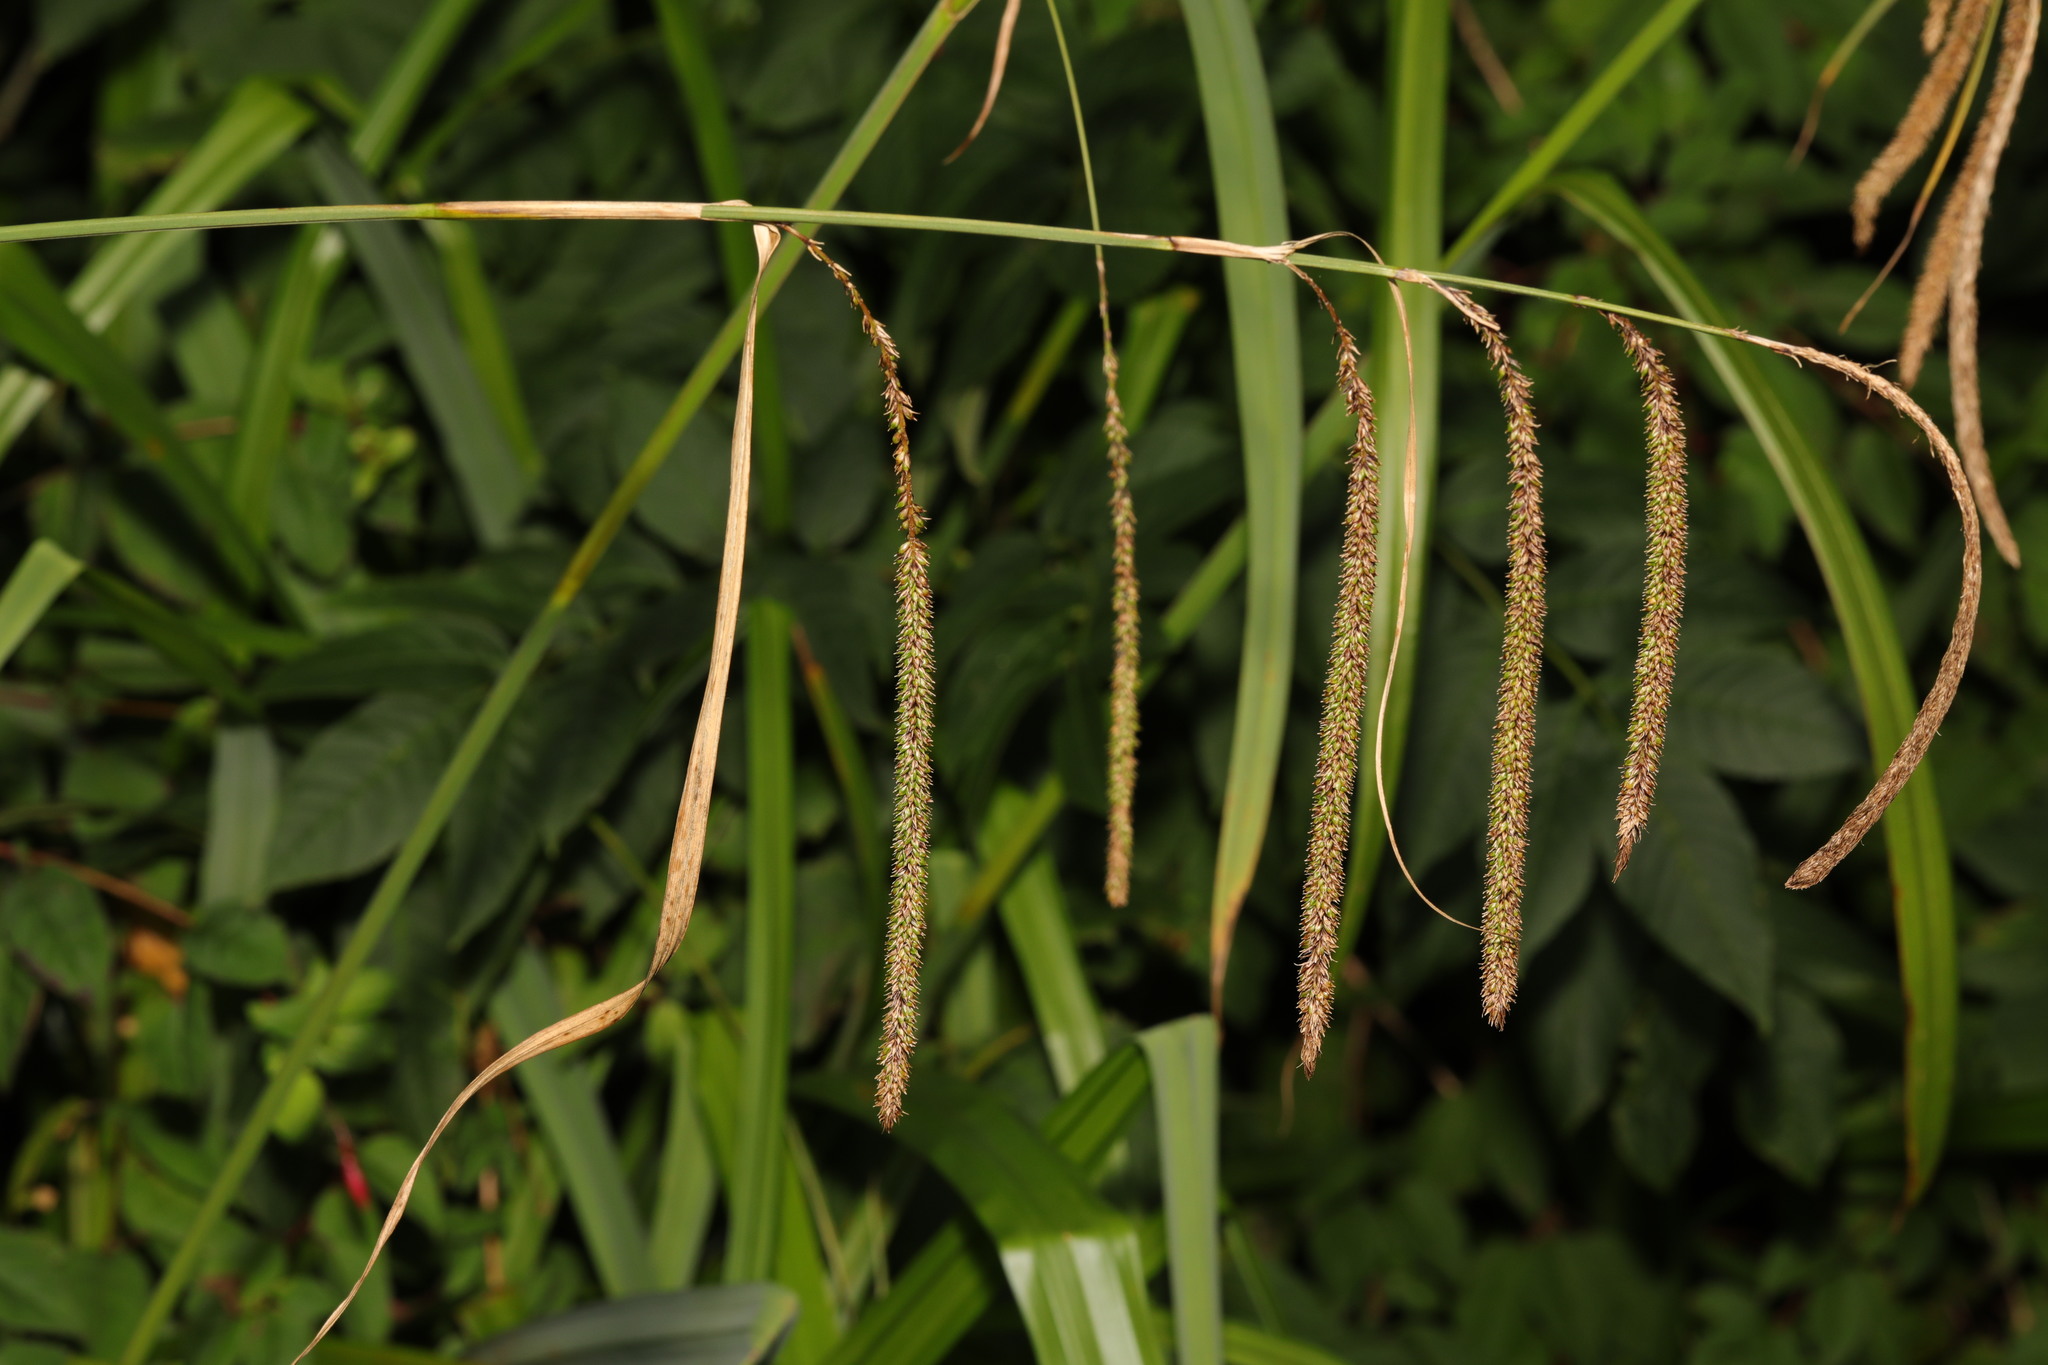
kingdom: Plantae
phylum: Tracheophyta
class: Liliopsida
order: Poales
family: Cyperaceae
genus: Carex
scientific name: Carex pendula
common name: Pendulous sedge
